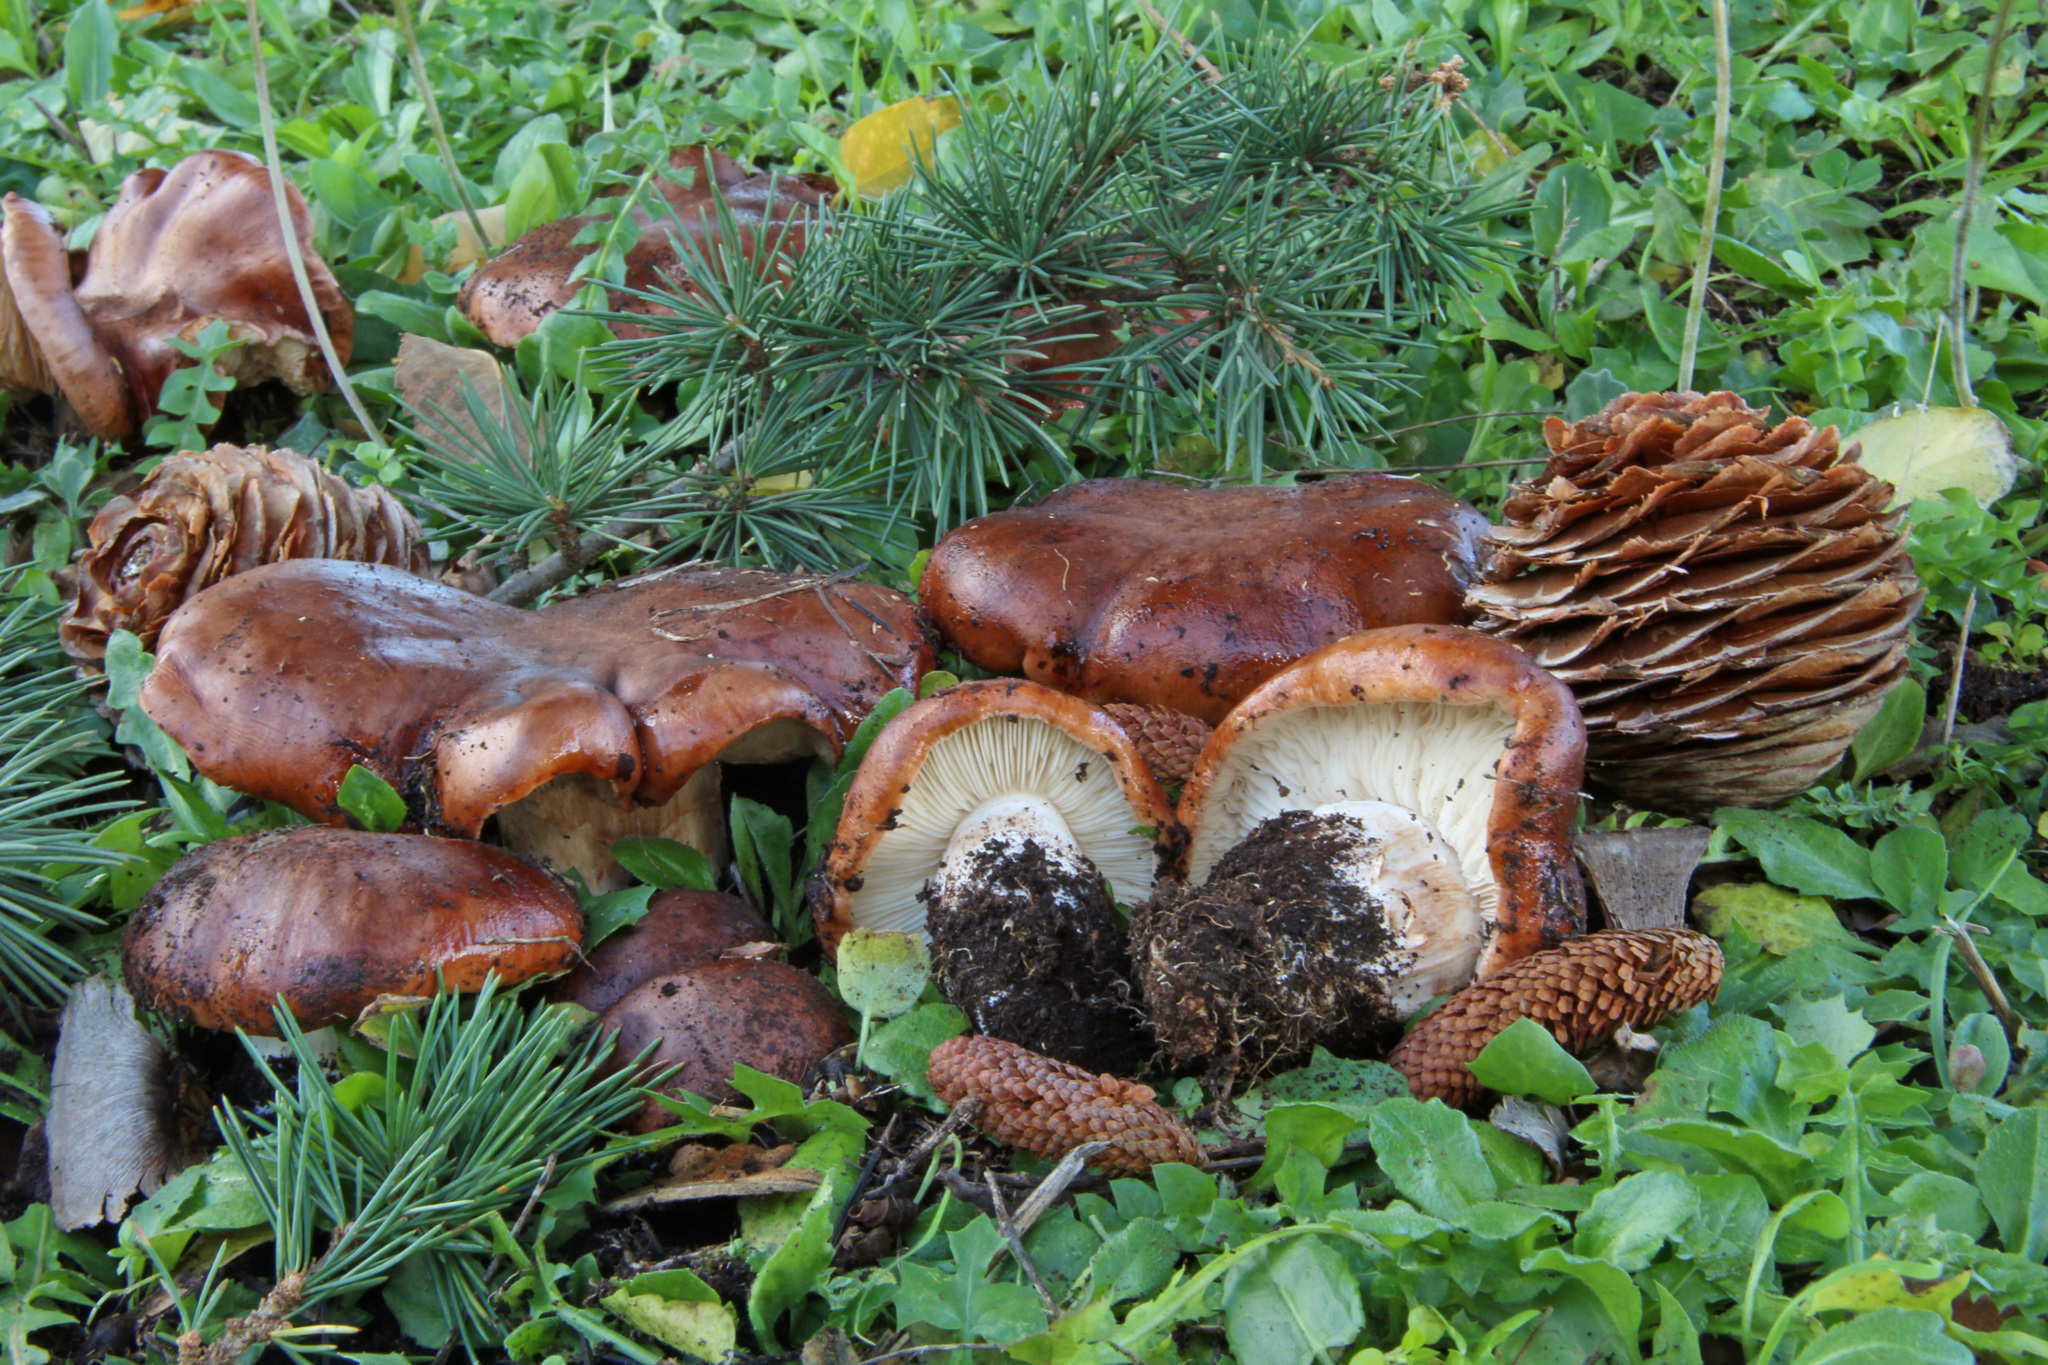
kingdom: Fungi
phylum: Basidiomycota
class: Agaricomycetes
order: Agaricales
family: Tricholomataceae
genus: Tricholoma
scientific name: Tricholoma pessundatum
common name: Tacked knight
